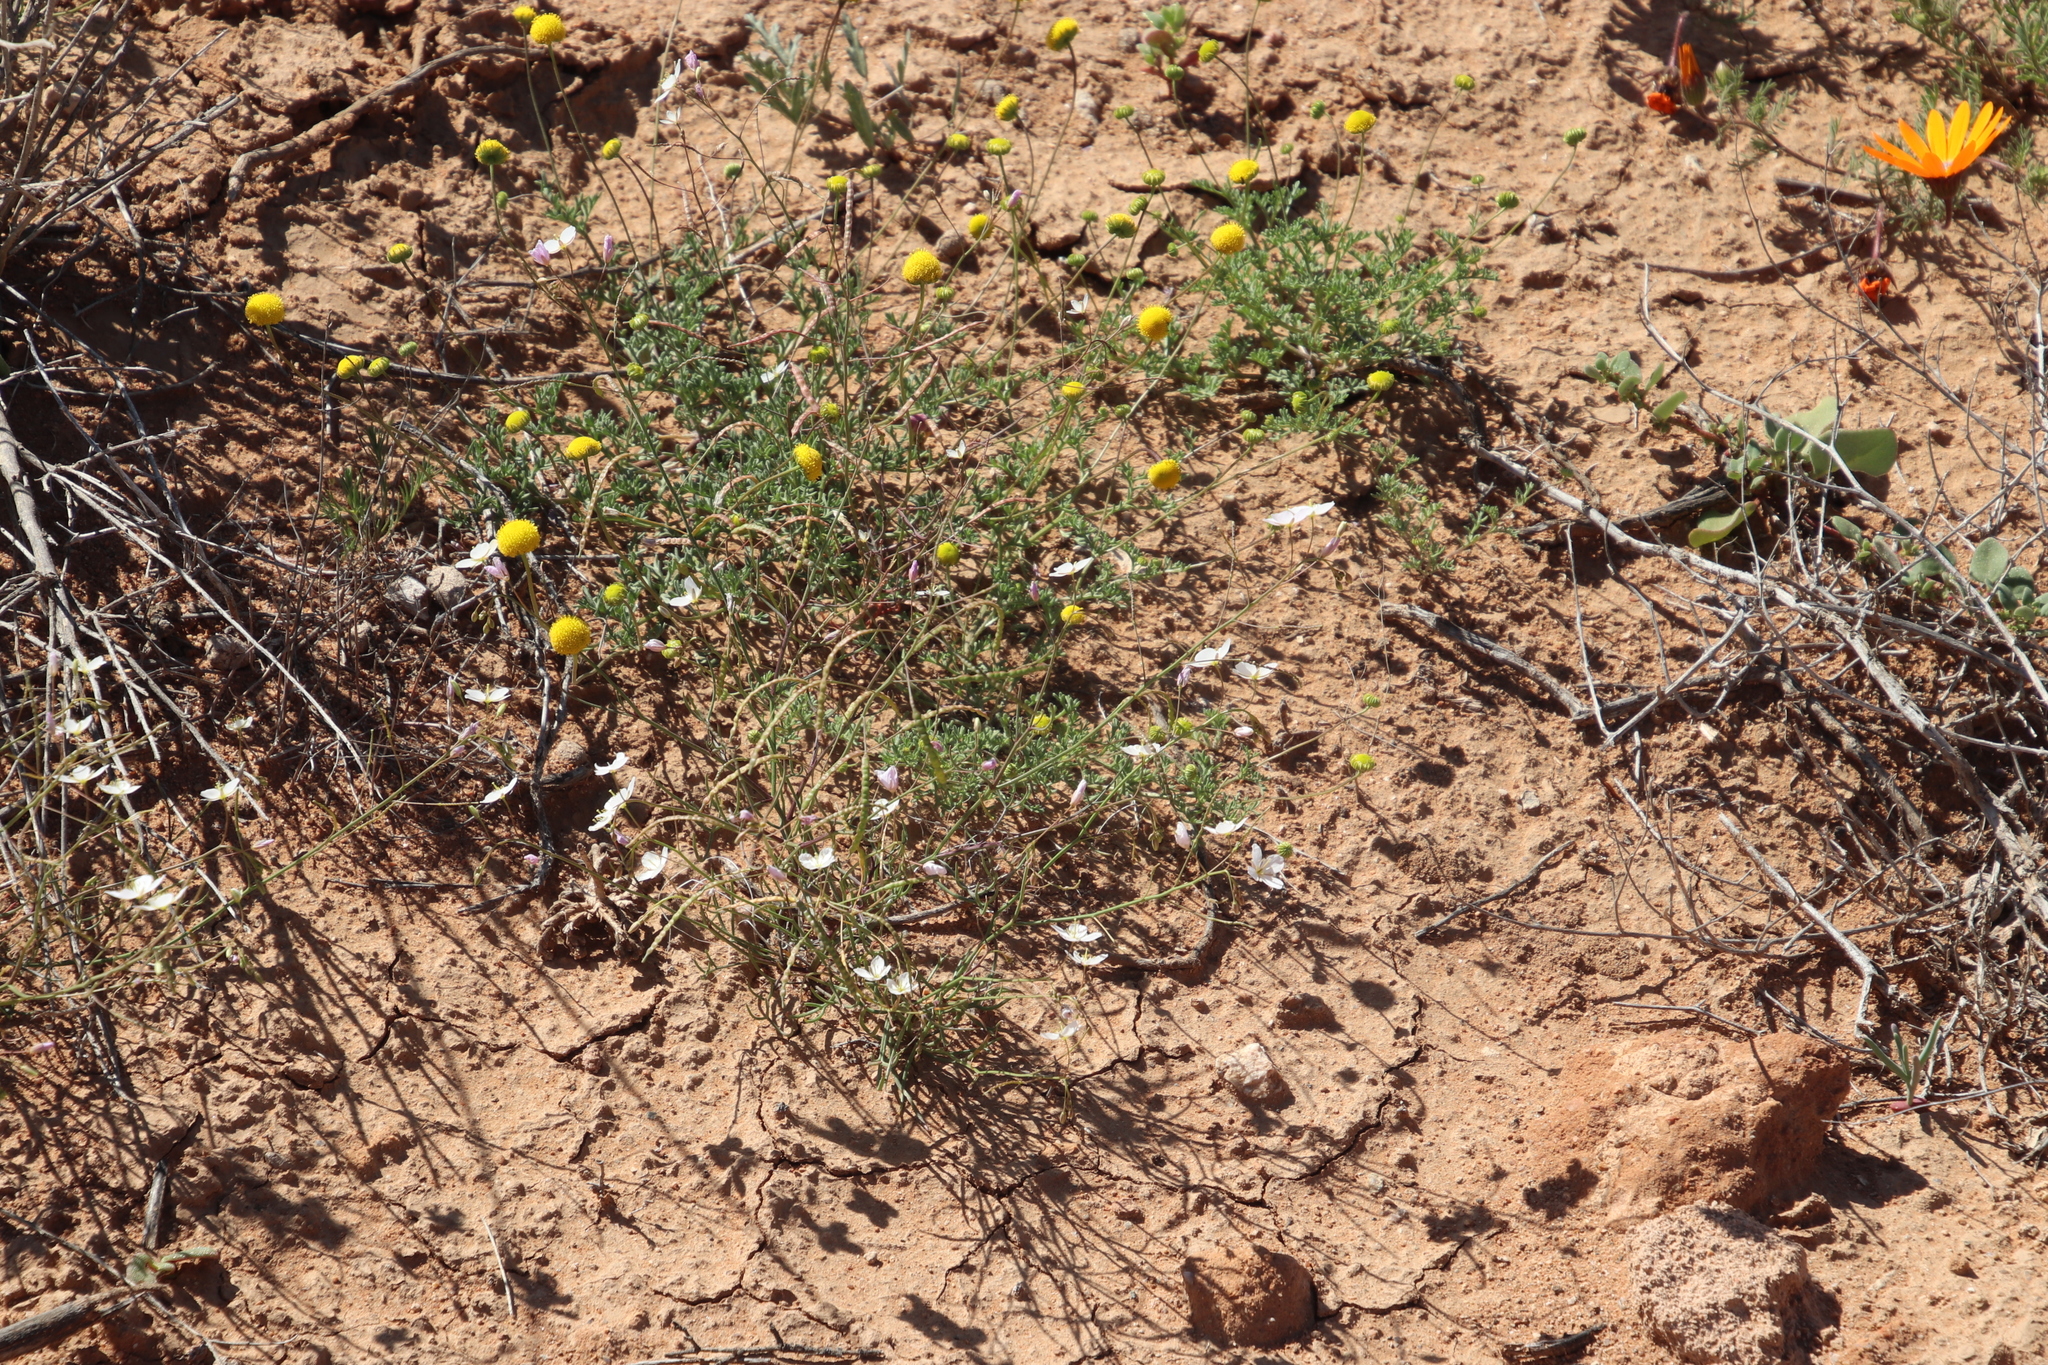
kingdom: Plantae
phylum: Tracheophyta
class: Magnoliopsida
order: Brassicales
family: Brassicaceae
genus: Heliophila
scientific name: Heliophila variabilis
